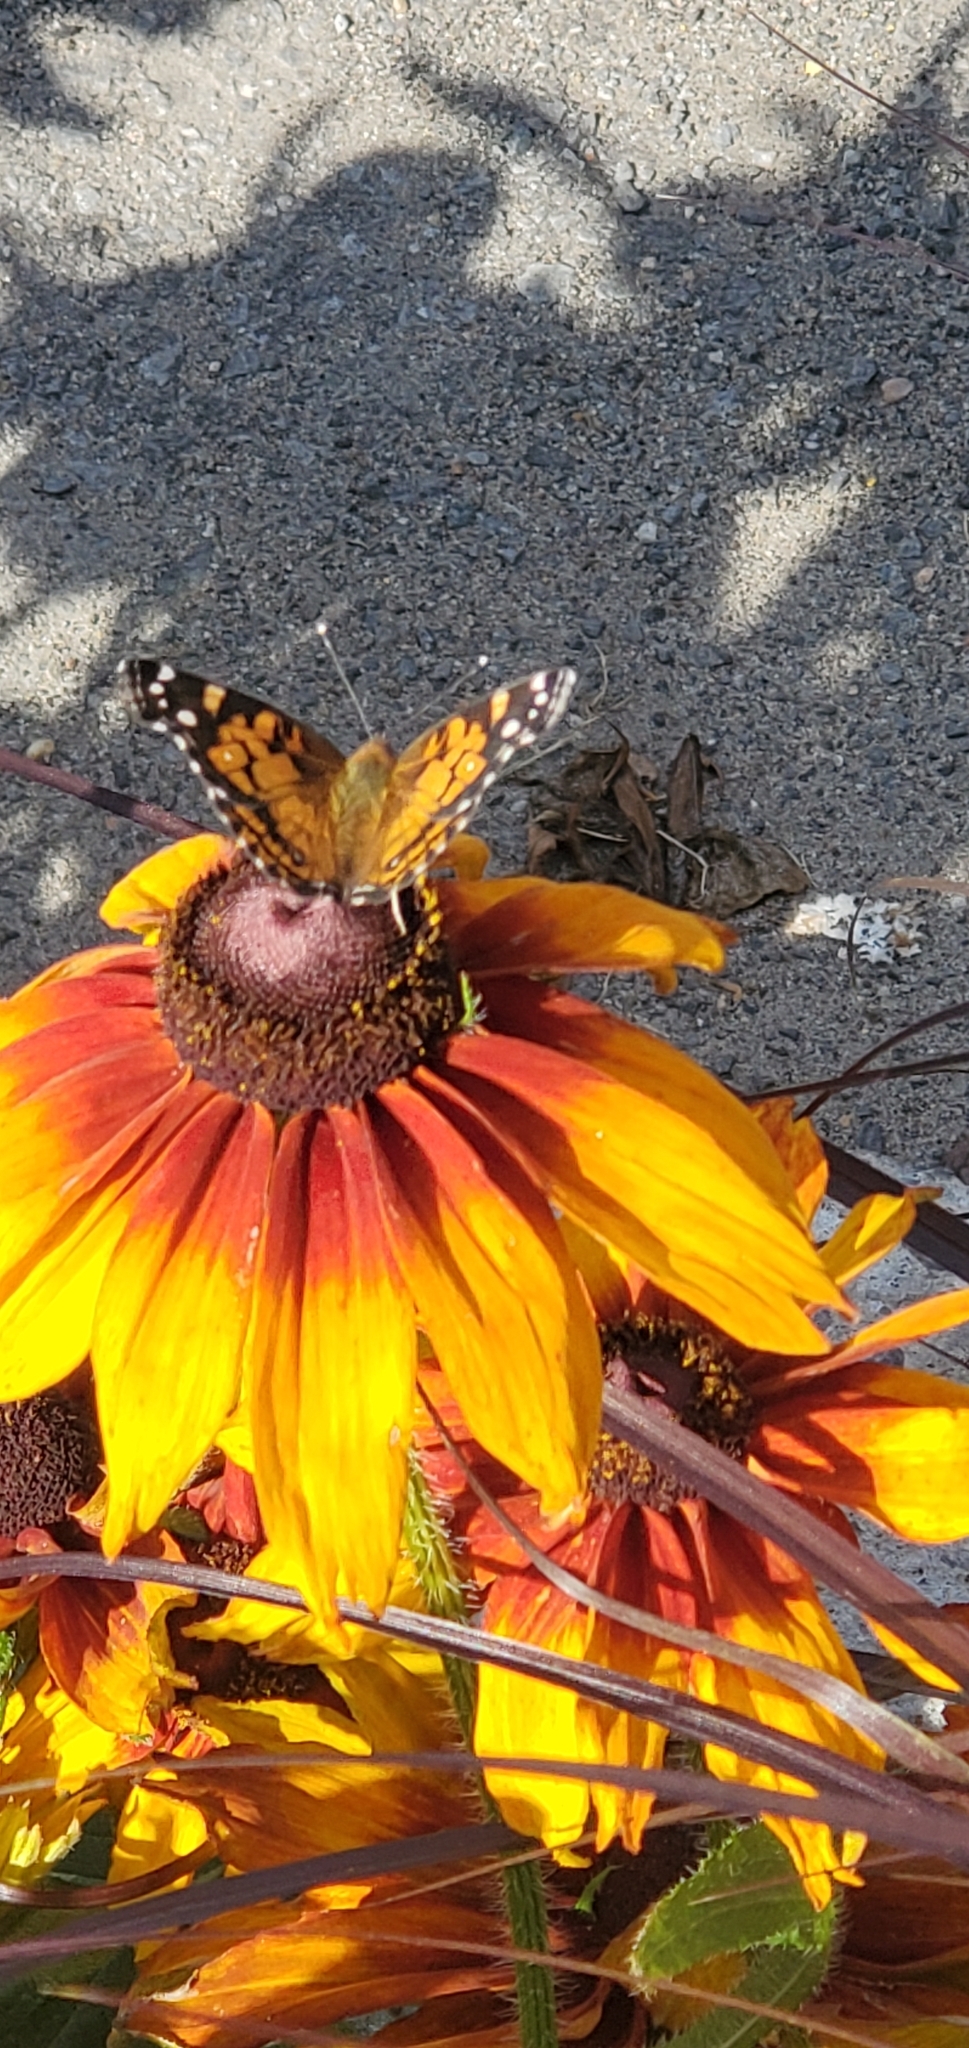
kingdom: Animalia
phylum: Arthropoda
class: Insecta
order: Lepidoptera
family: Nymphalidae
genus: Vanessa
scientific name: Vanessa virginiensis
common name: American lady
